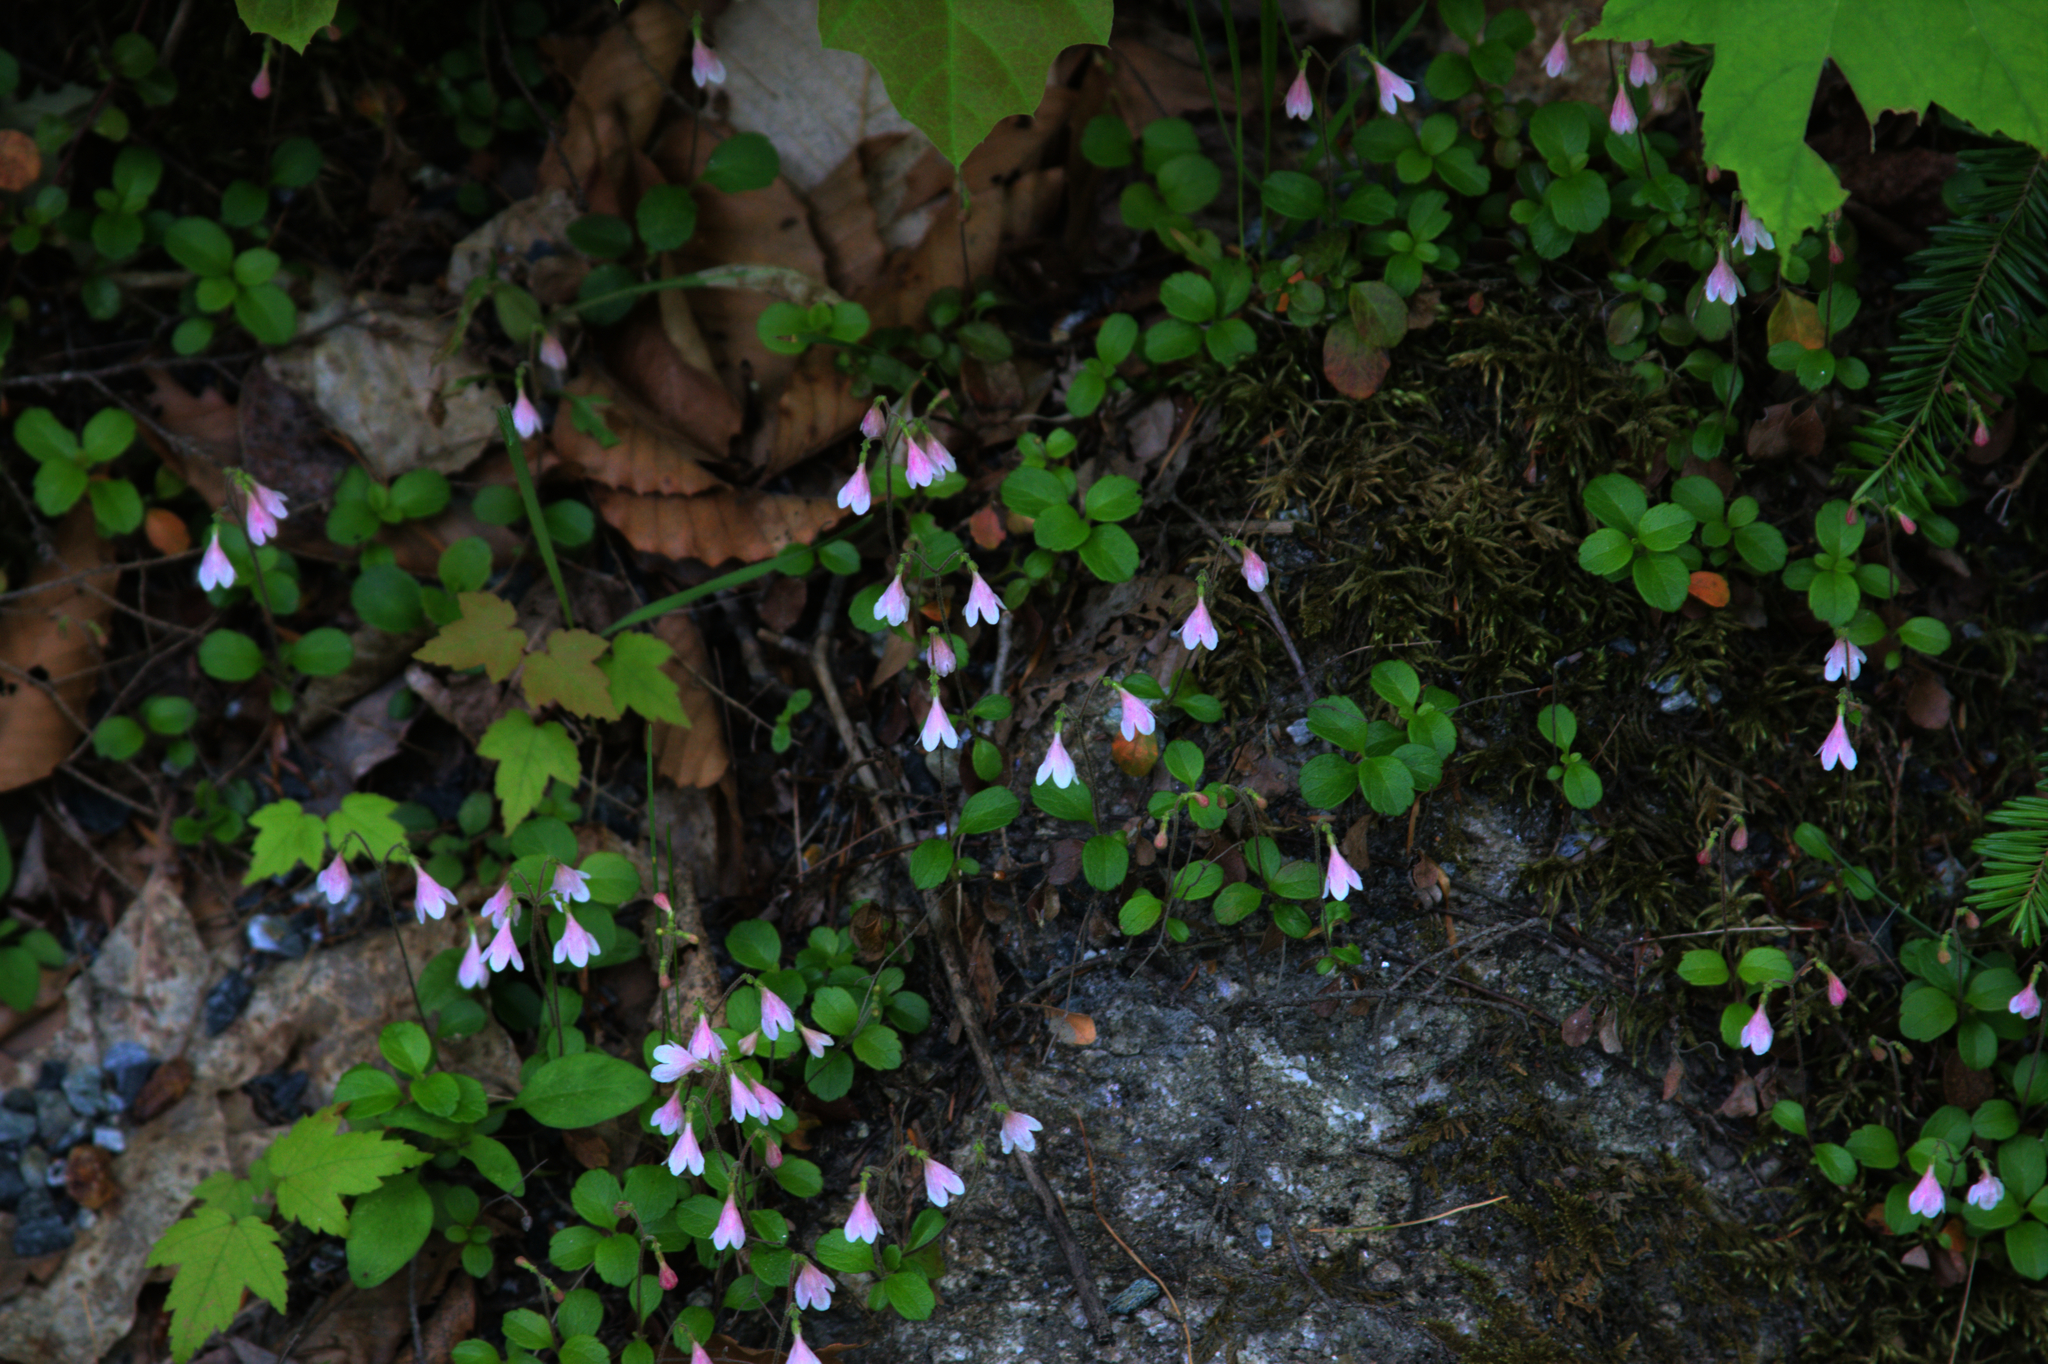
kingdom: Plantae
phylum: Tracheophyta
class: Magnoliopsida
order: Dipsacales
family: Caprifoliaceae
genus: Linnaea
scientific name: Linnaea borealis
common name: Twinflower
